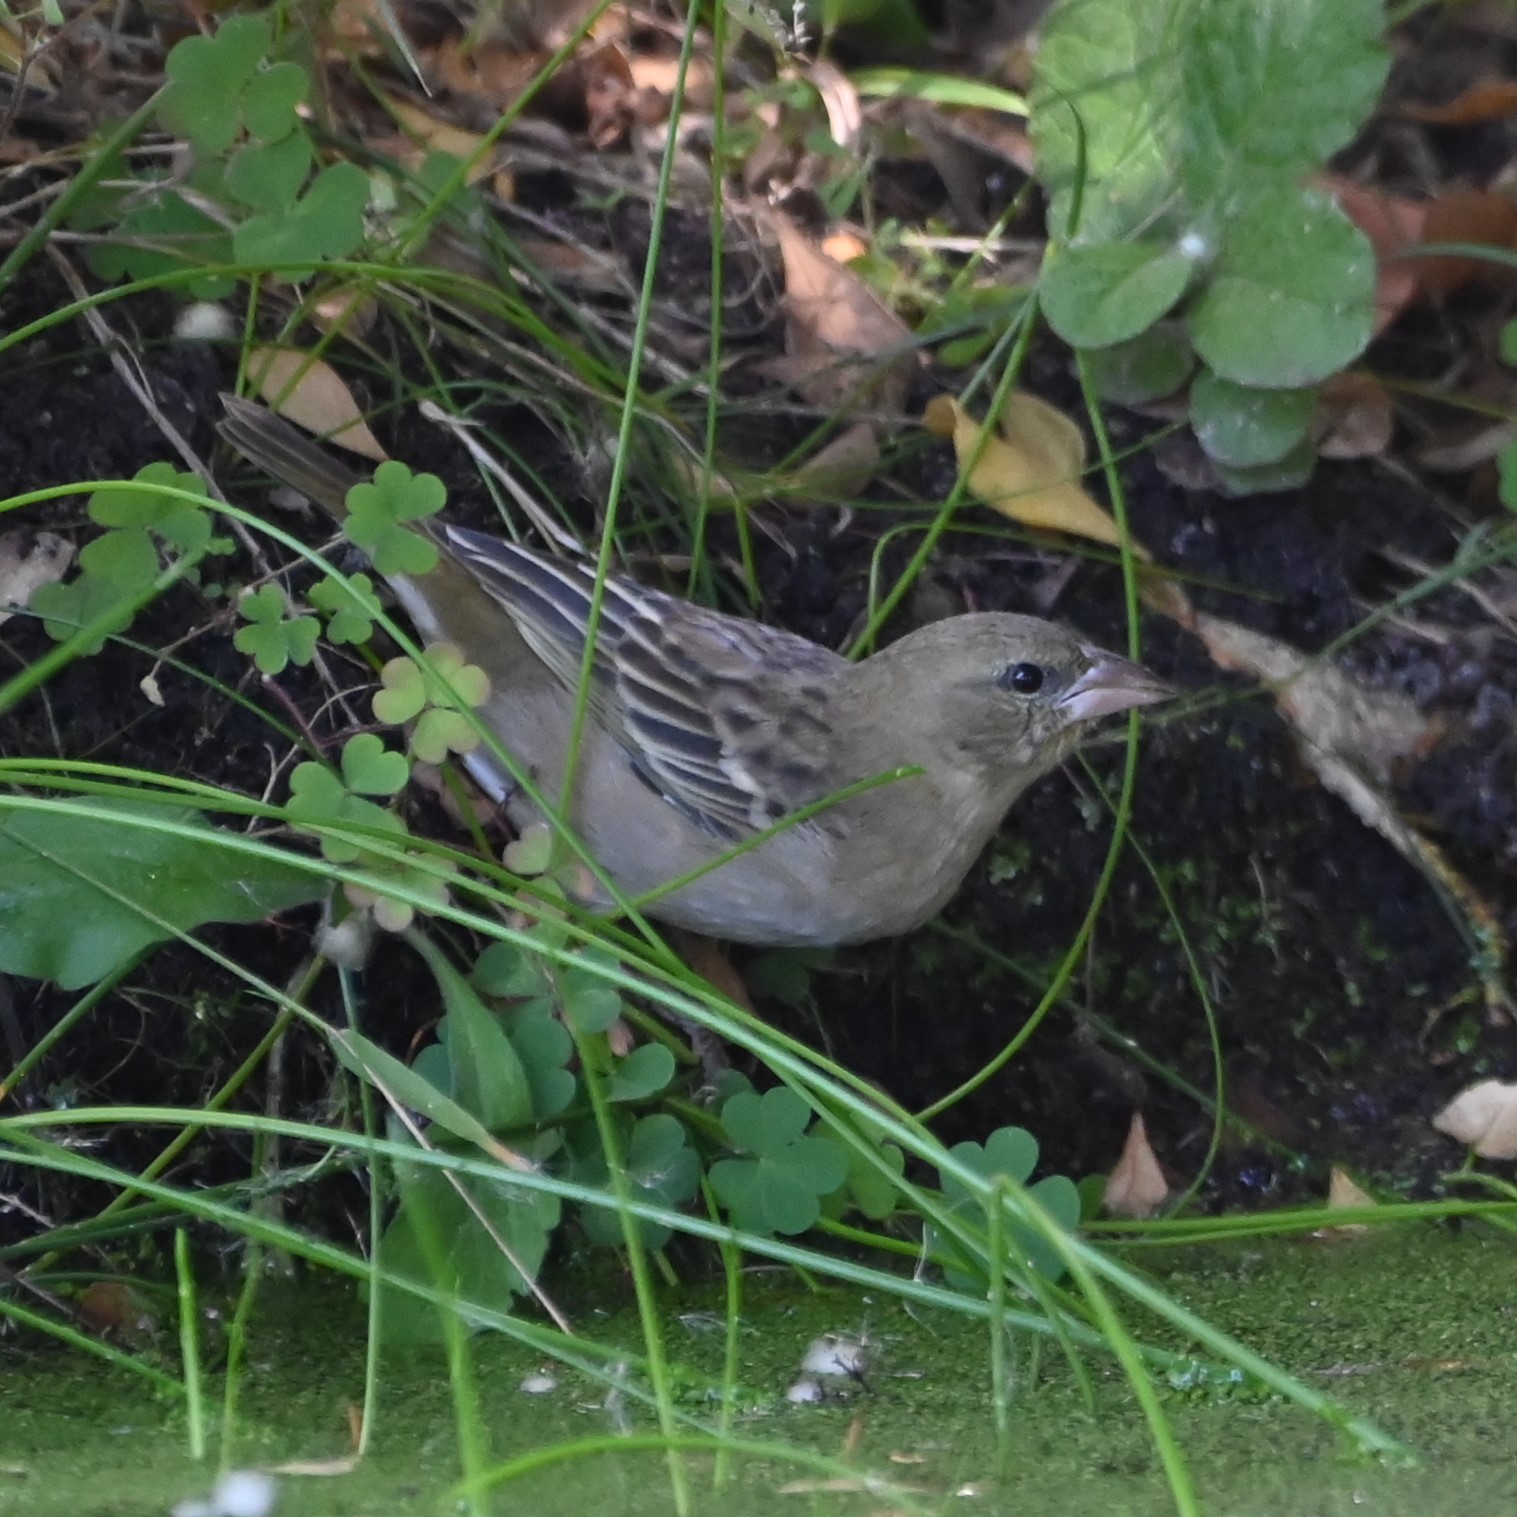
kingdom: Animalia
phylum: Chordata
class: Aves
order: Passeriformes
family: Ploceidae
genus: Ploceus
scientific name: Ploceus velatus
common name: Southern masked weaver
